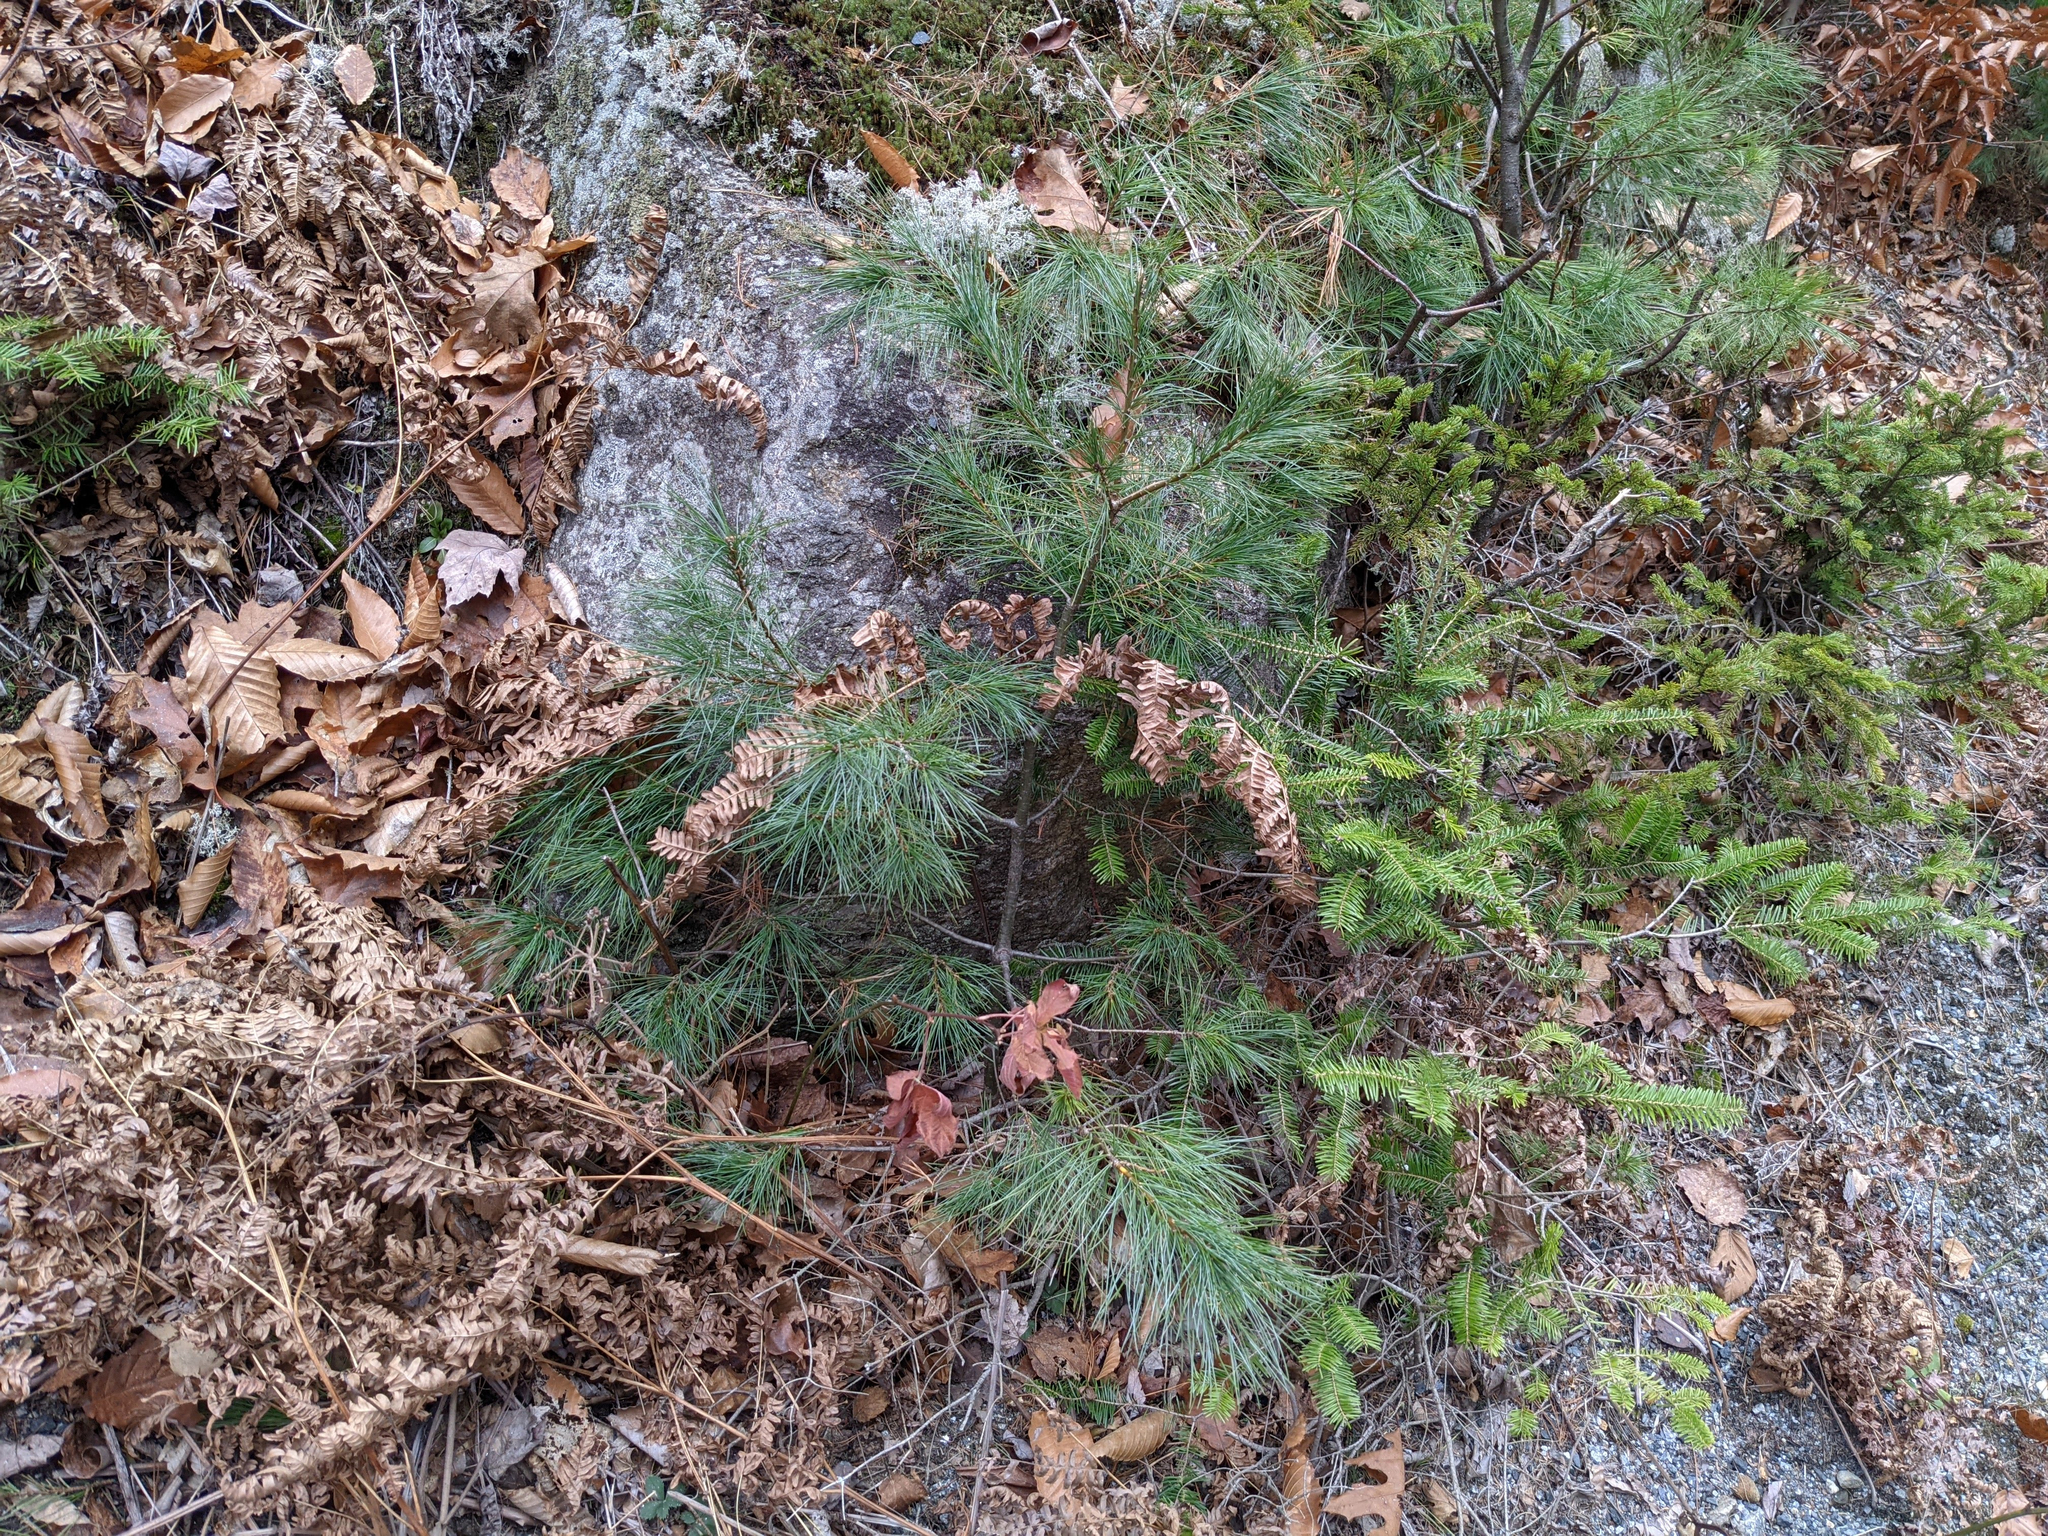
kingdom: Plantae
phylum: Tracheophyta
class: Pinopsida
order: Pinales
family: Pinaceae
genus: Pinus
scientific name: Pinus strobus
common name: Weymouth pine
